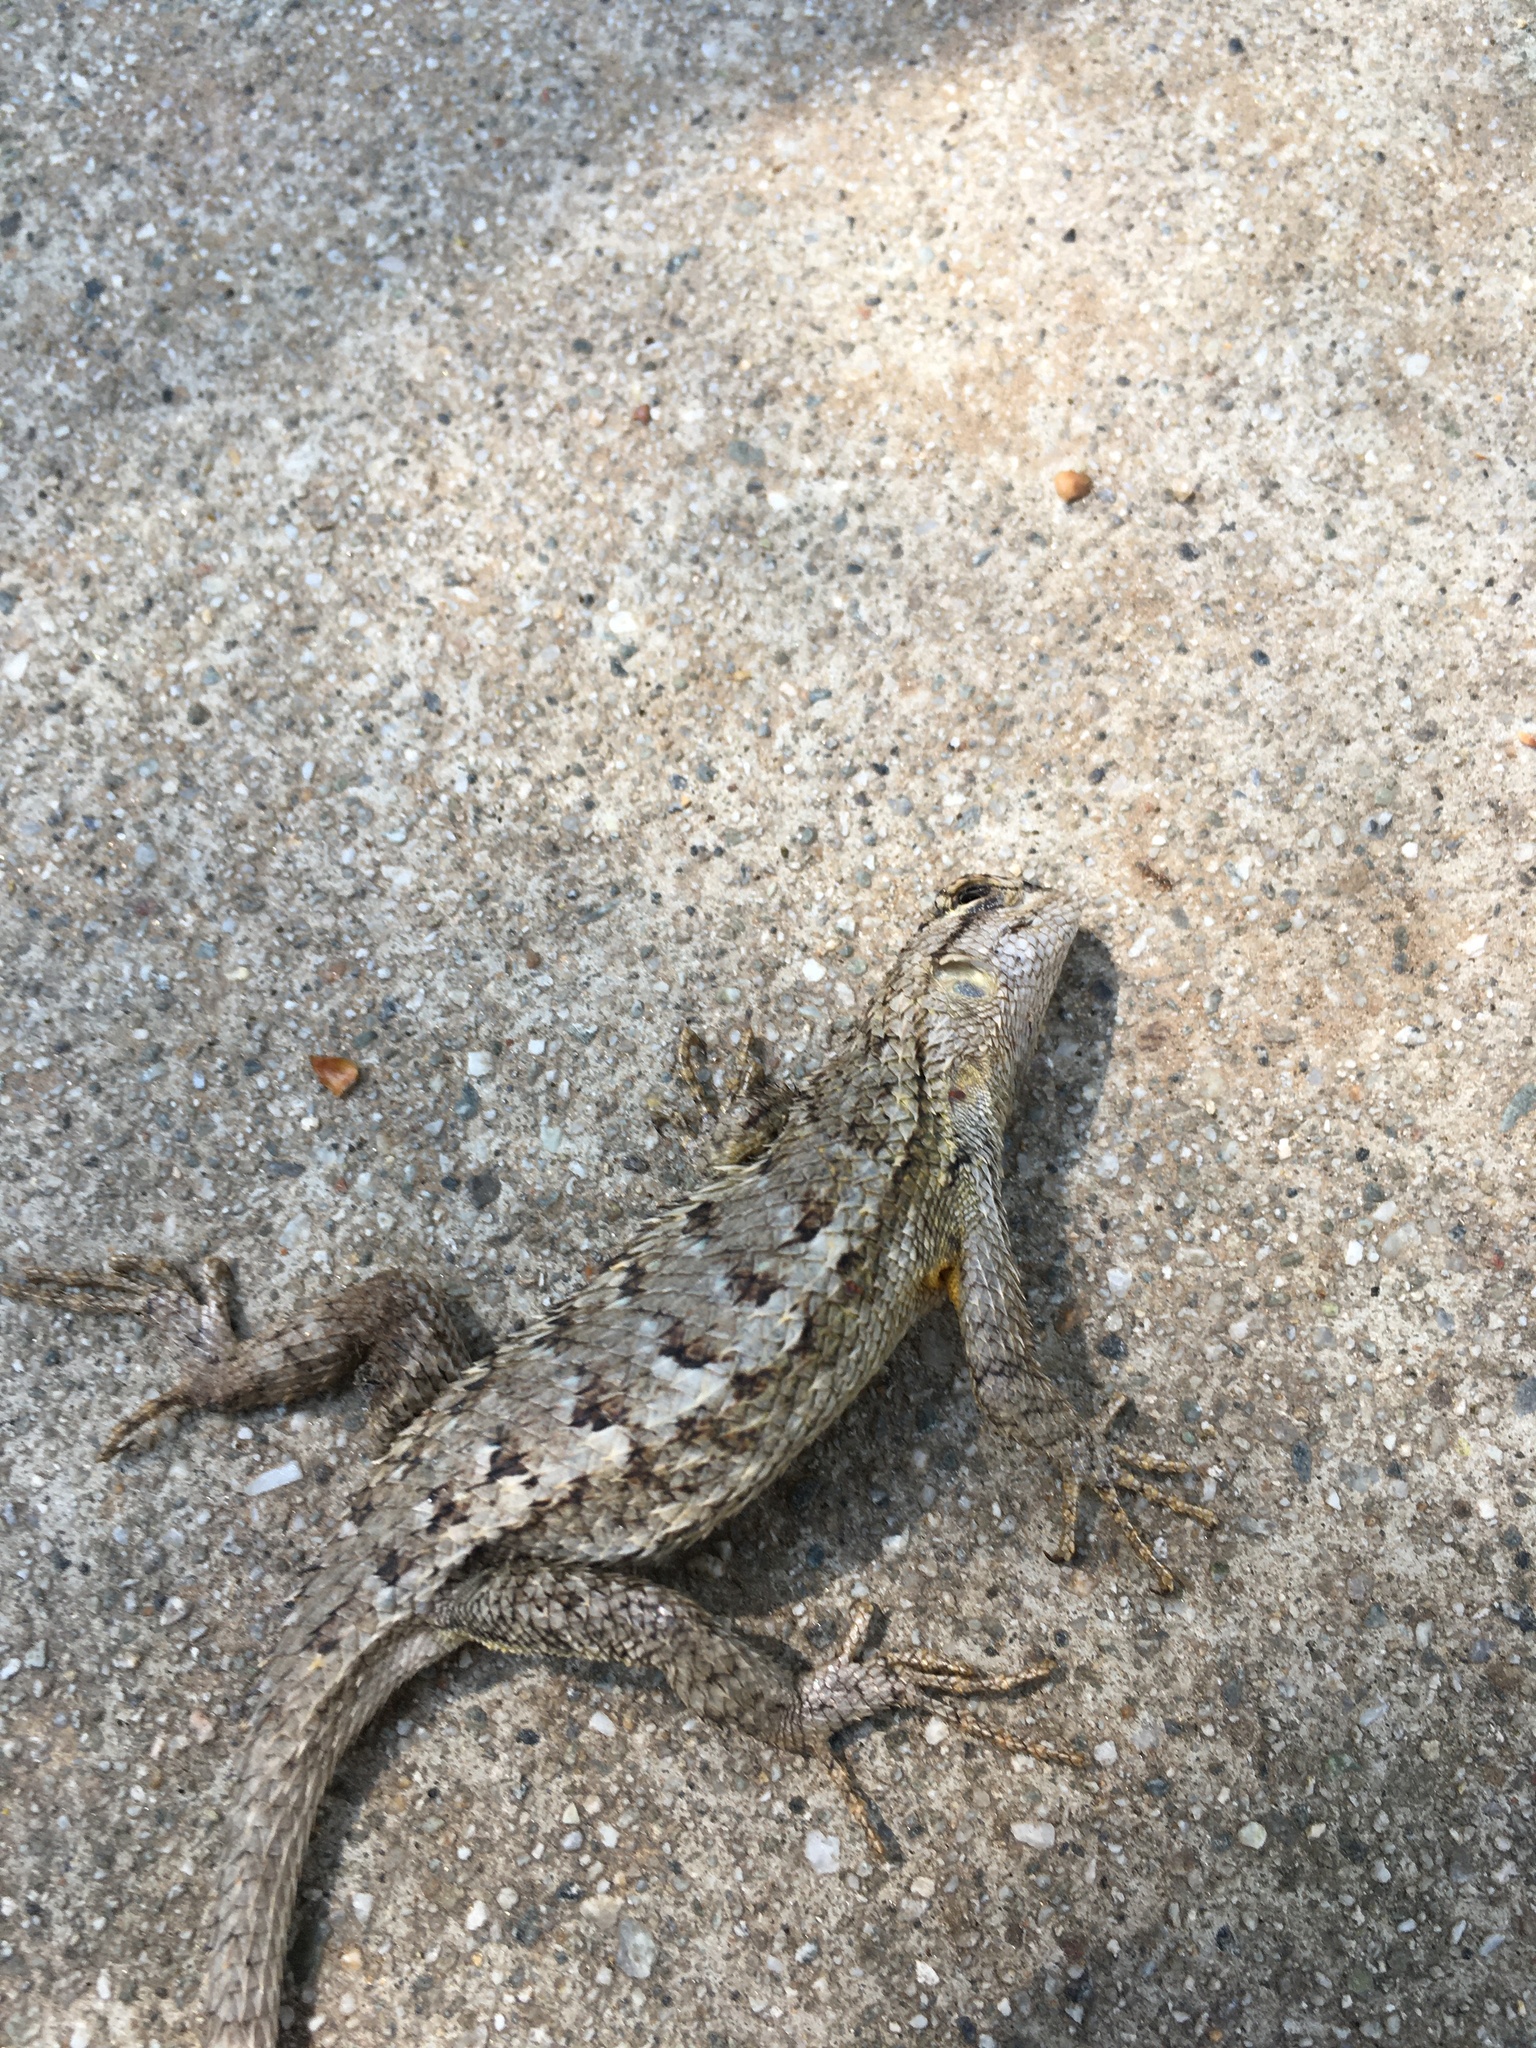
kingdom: Animalia
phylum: Chordata
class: Squamata
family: Phrynosomatidae
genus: Sceloporus
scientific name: Sceloporus occidentalis
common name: Western fence lizard
